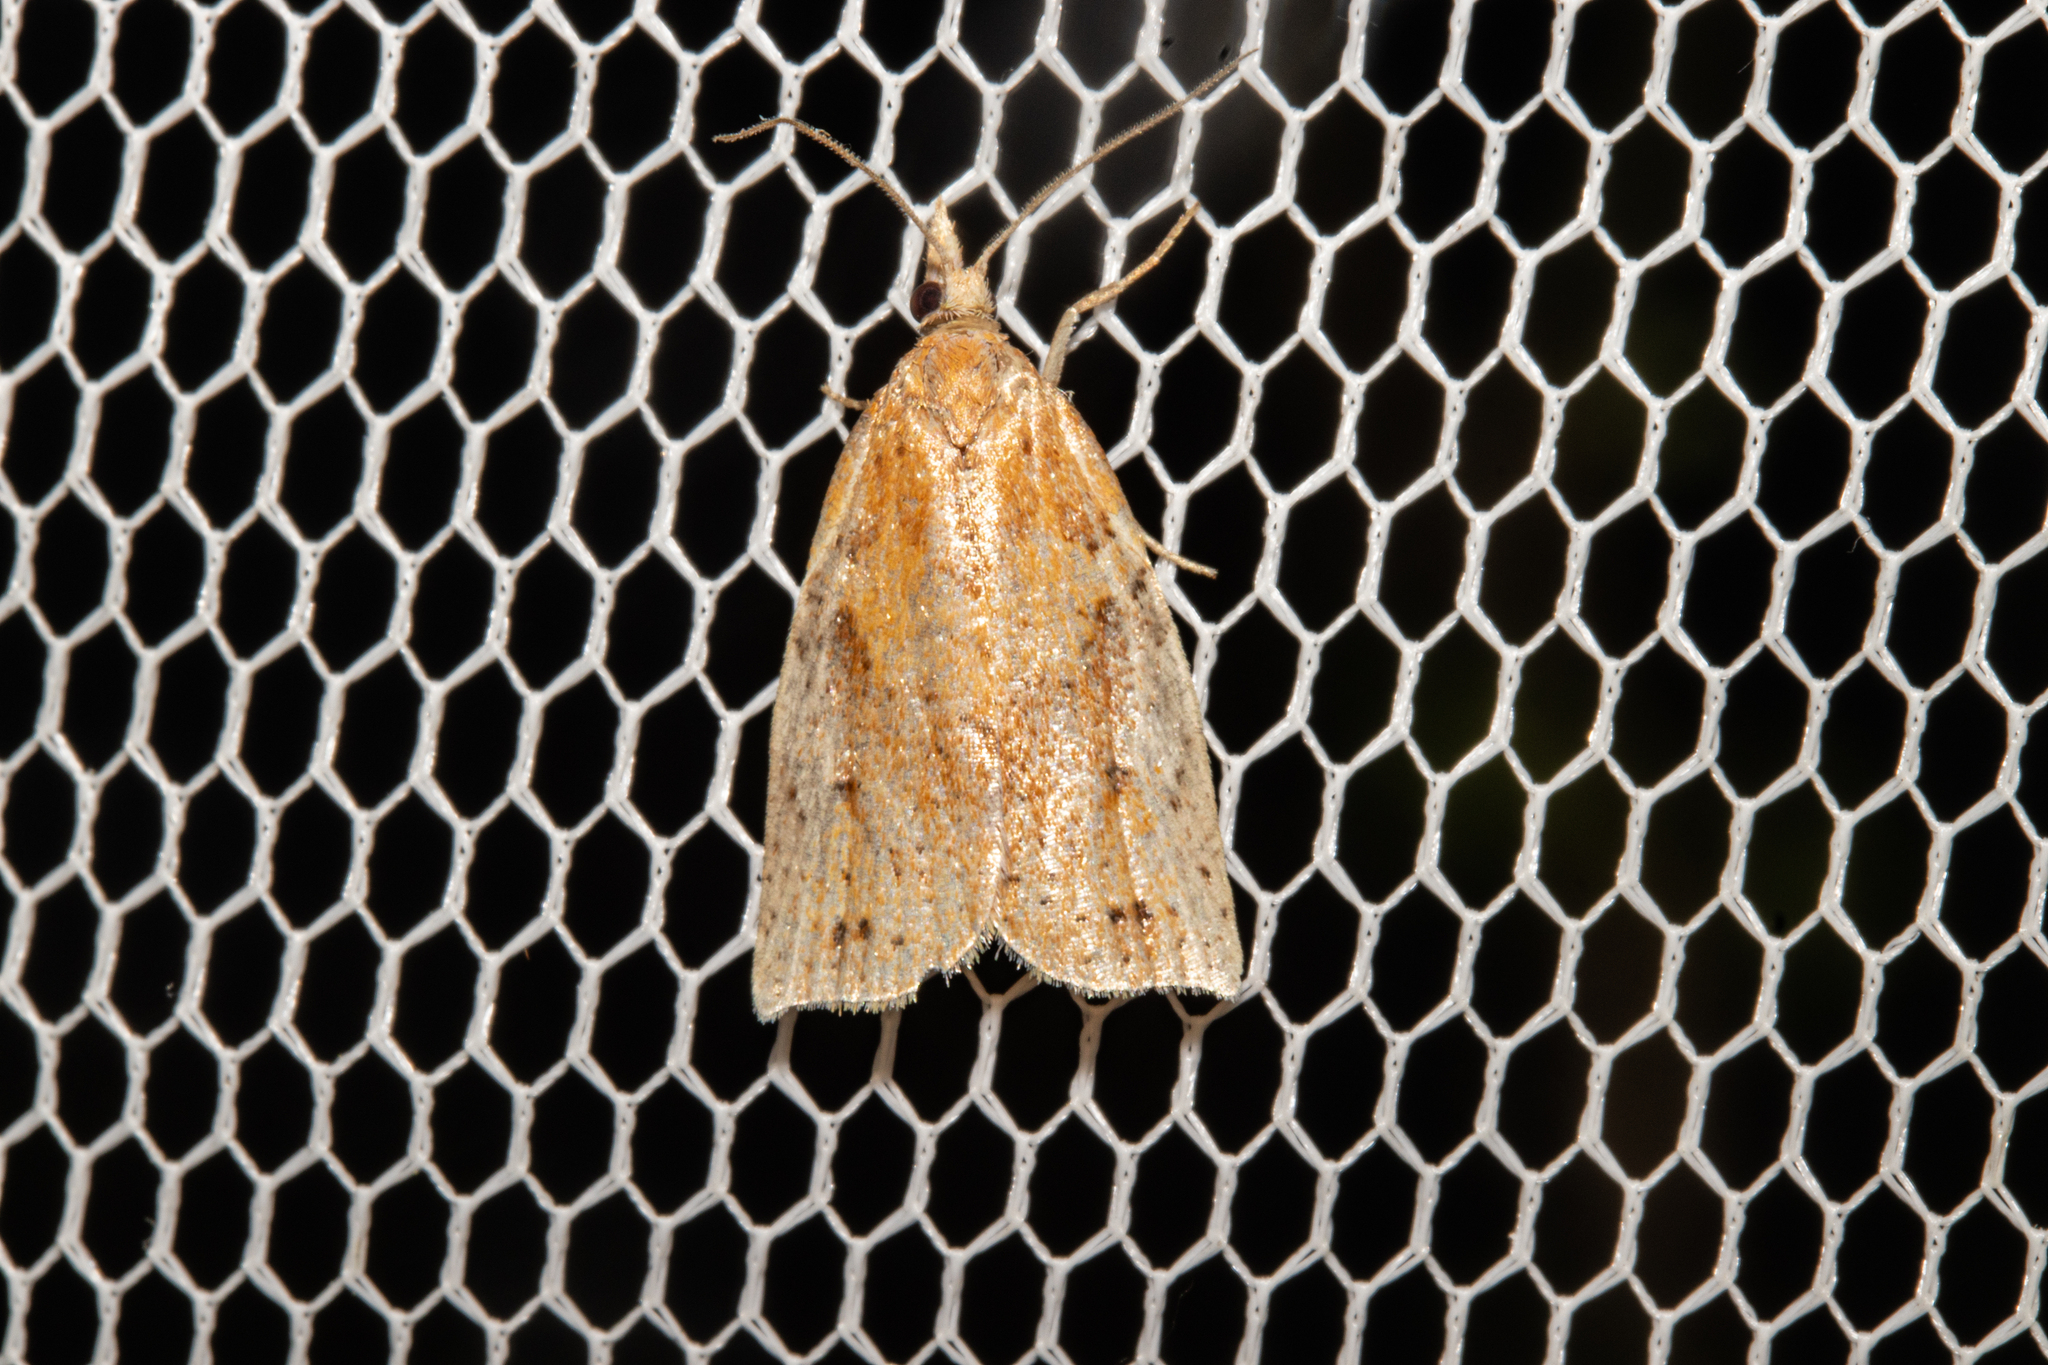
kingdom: Animalia
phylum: Arthropoda
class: Insecta
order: Lepidoptera
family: Tortricidae
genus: Apoctena
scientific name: Apoctena conditana
